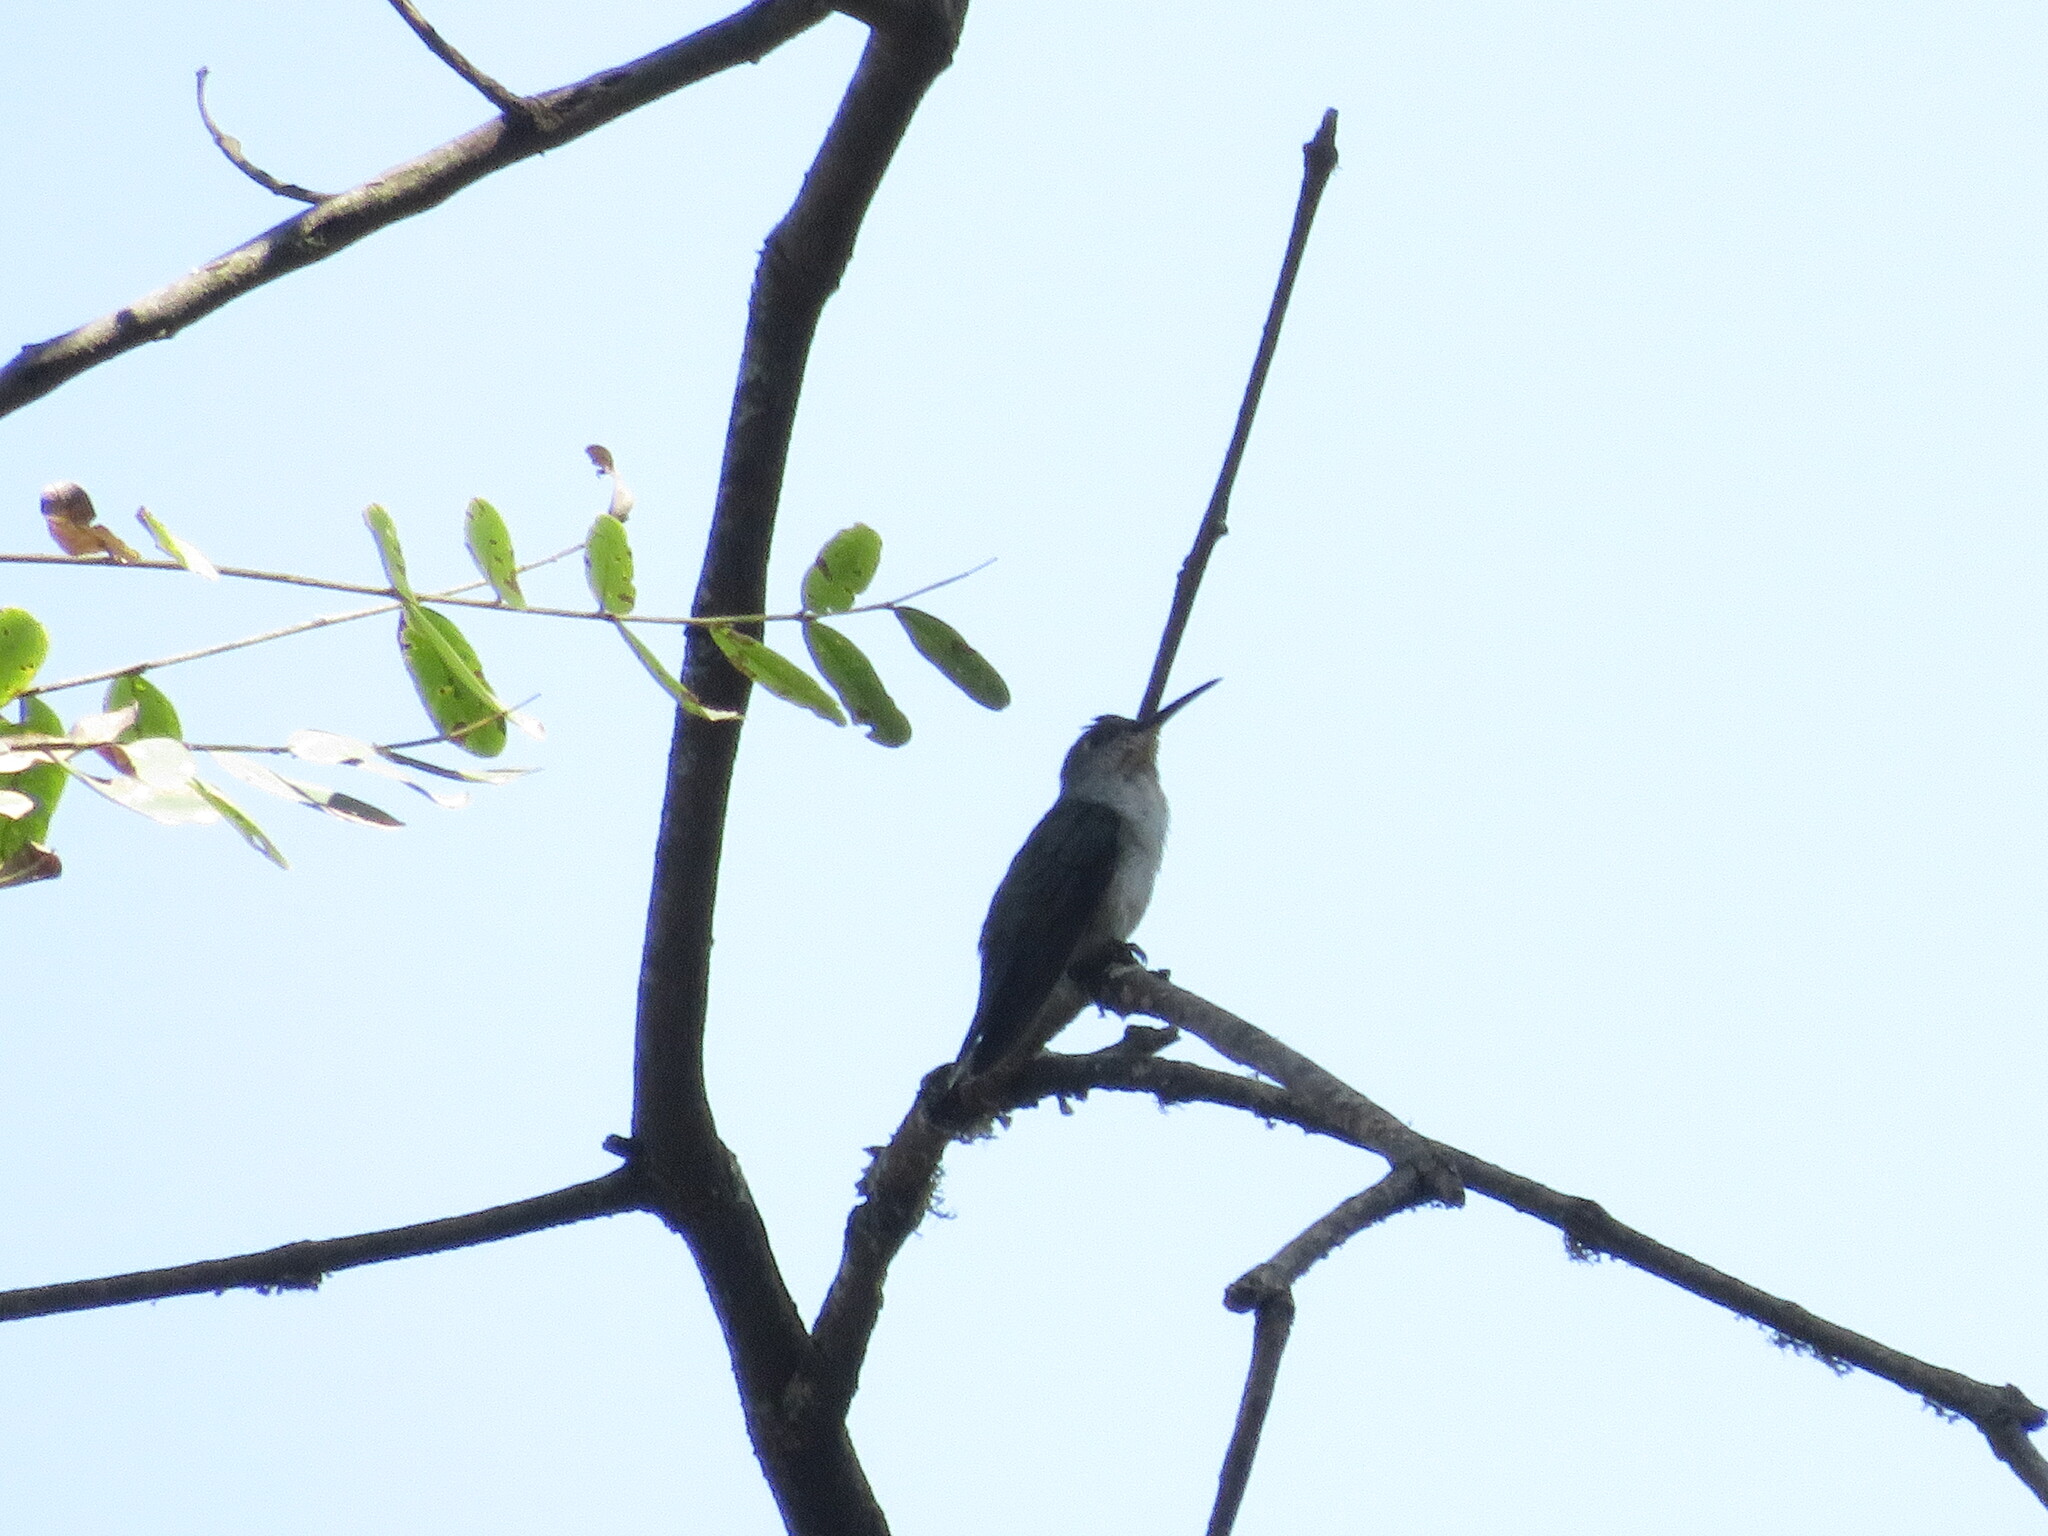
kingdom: Animalia
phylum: Chordata
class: Aves
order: Apodiformes
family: Trochilidae
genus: Elliotomyia
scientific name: Elliotomyia chionogaster
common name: White-bellied hummingbird
